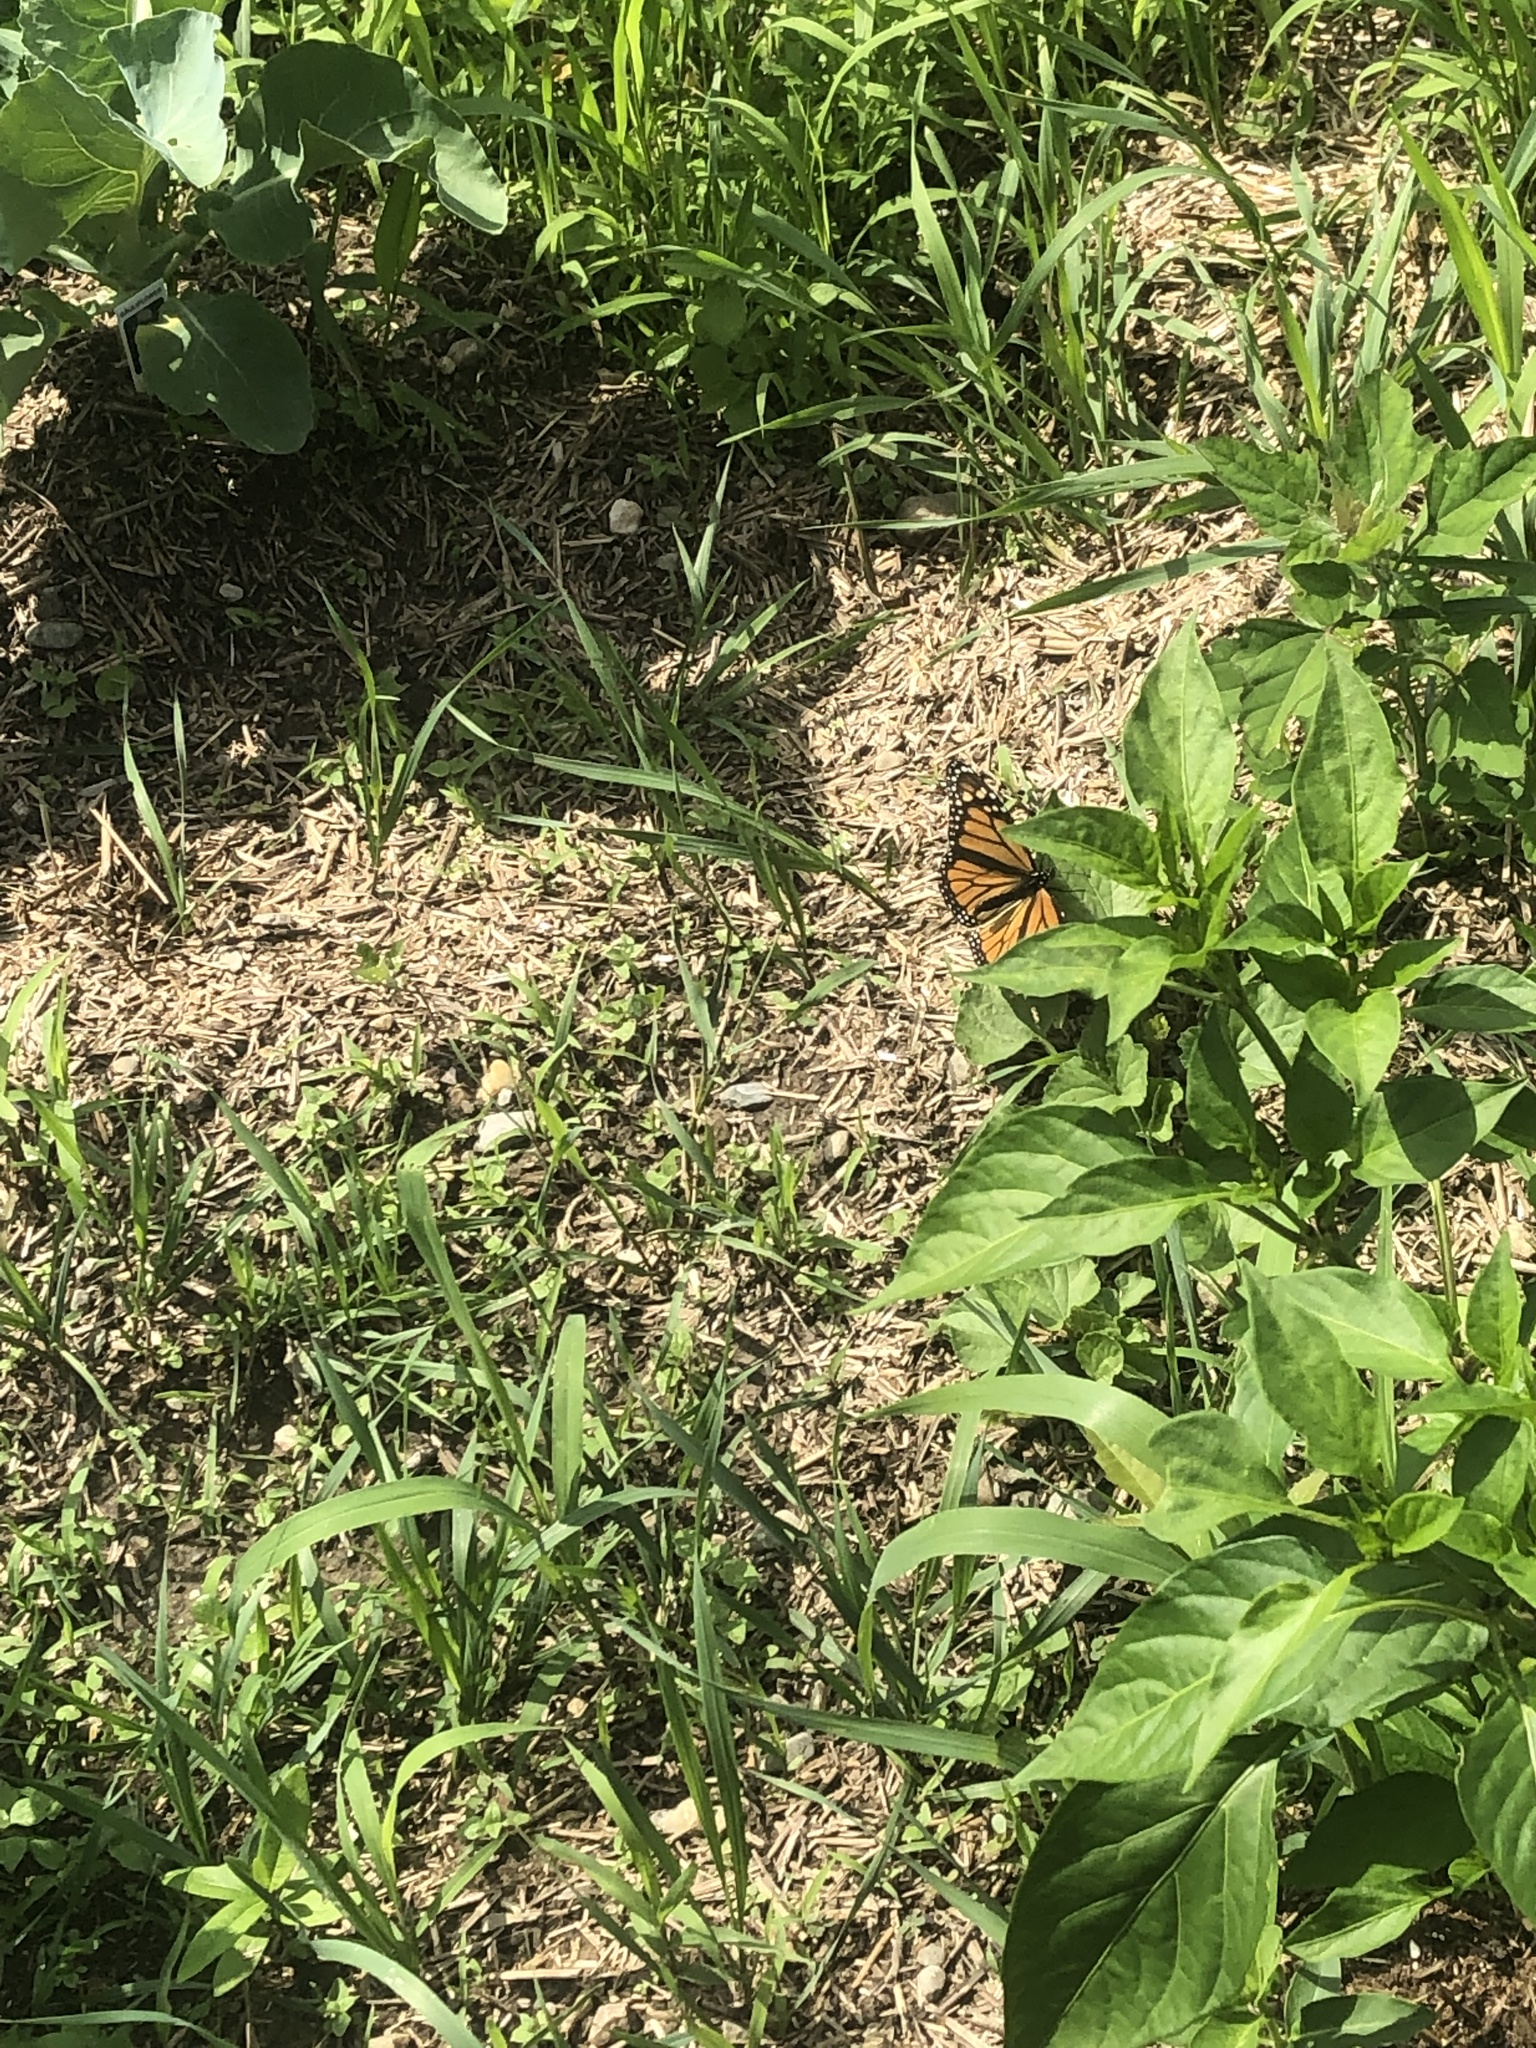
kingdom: Animalia
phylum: Arthropoda
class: Insecta
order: Lepidoptera
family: Nymphalidae
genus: Danaus
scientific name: Danaus plexippus
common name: Monarch
